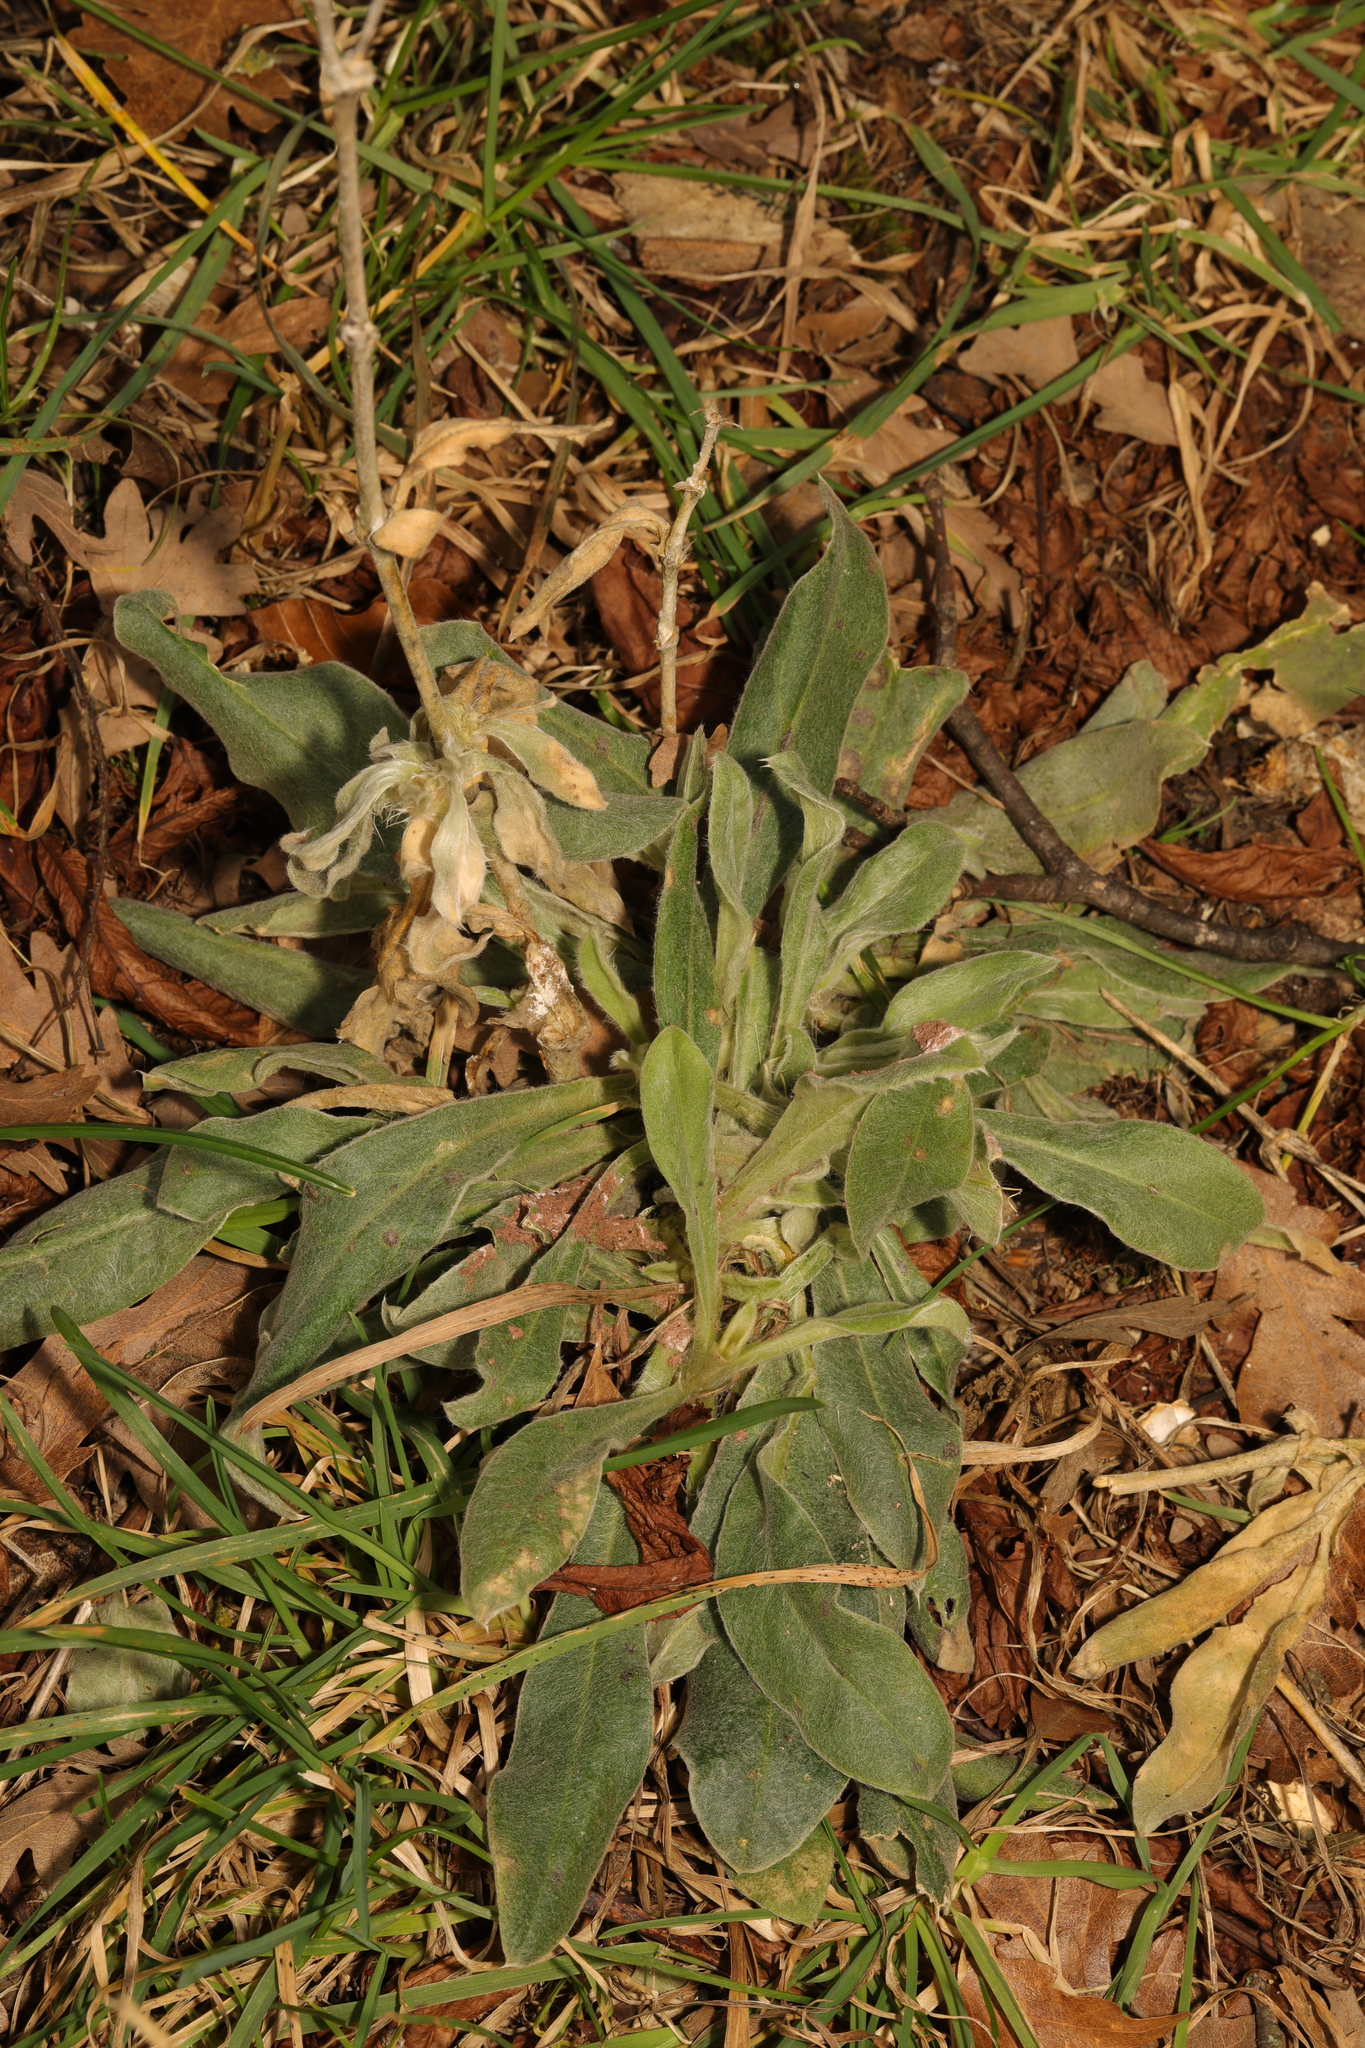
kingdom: Plantae
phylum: Tracheophyta
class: Magnoliopsida
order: Caryophyllales
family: Caryophyllaceae
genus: Silene
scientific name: Silene coronaria
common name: Rose campion
